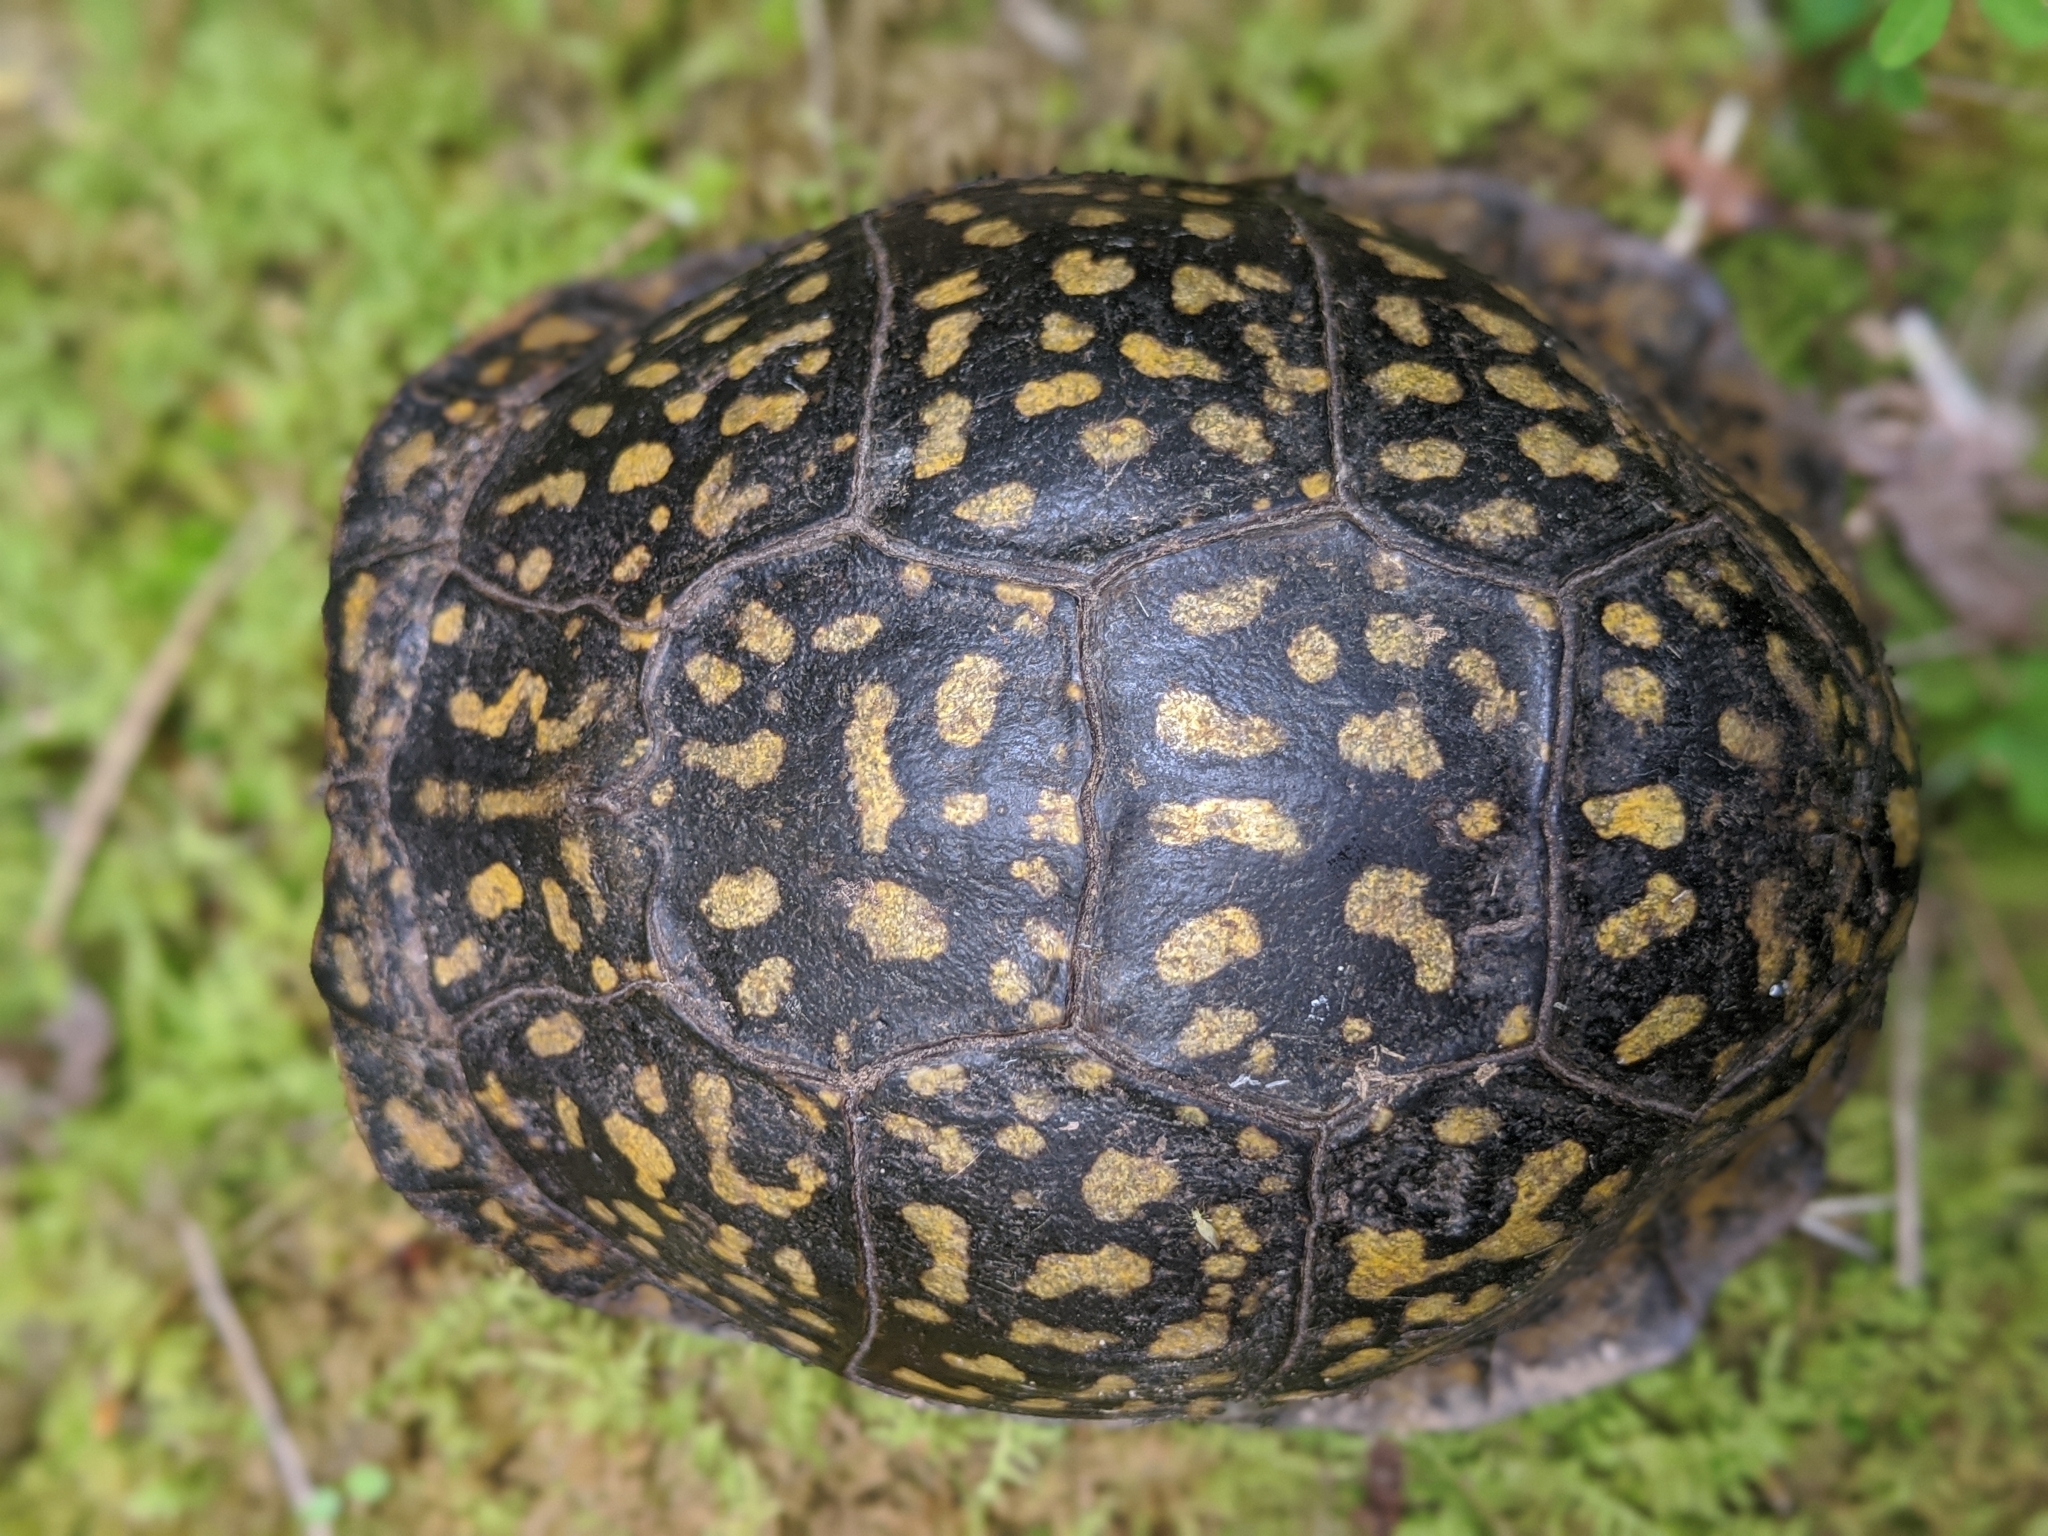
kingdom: Animalia
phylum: Chordata
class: Testudines
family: Emydidae
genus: Terrapene
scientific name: Terrapene carolina
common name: Common box turtle
